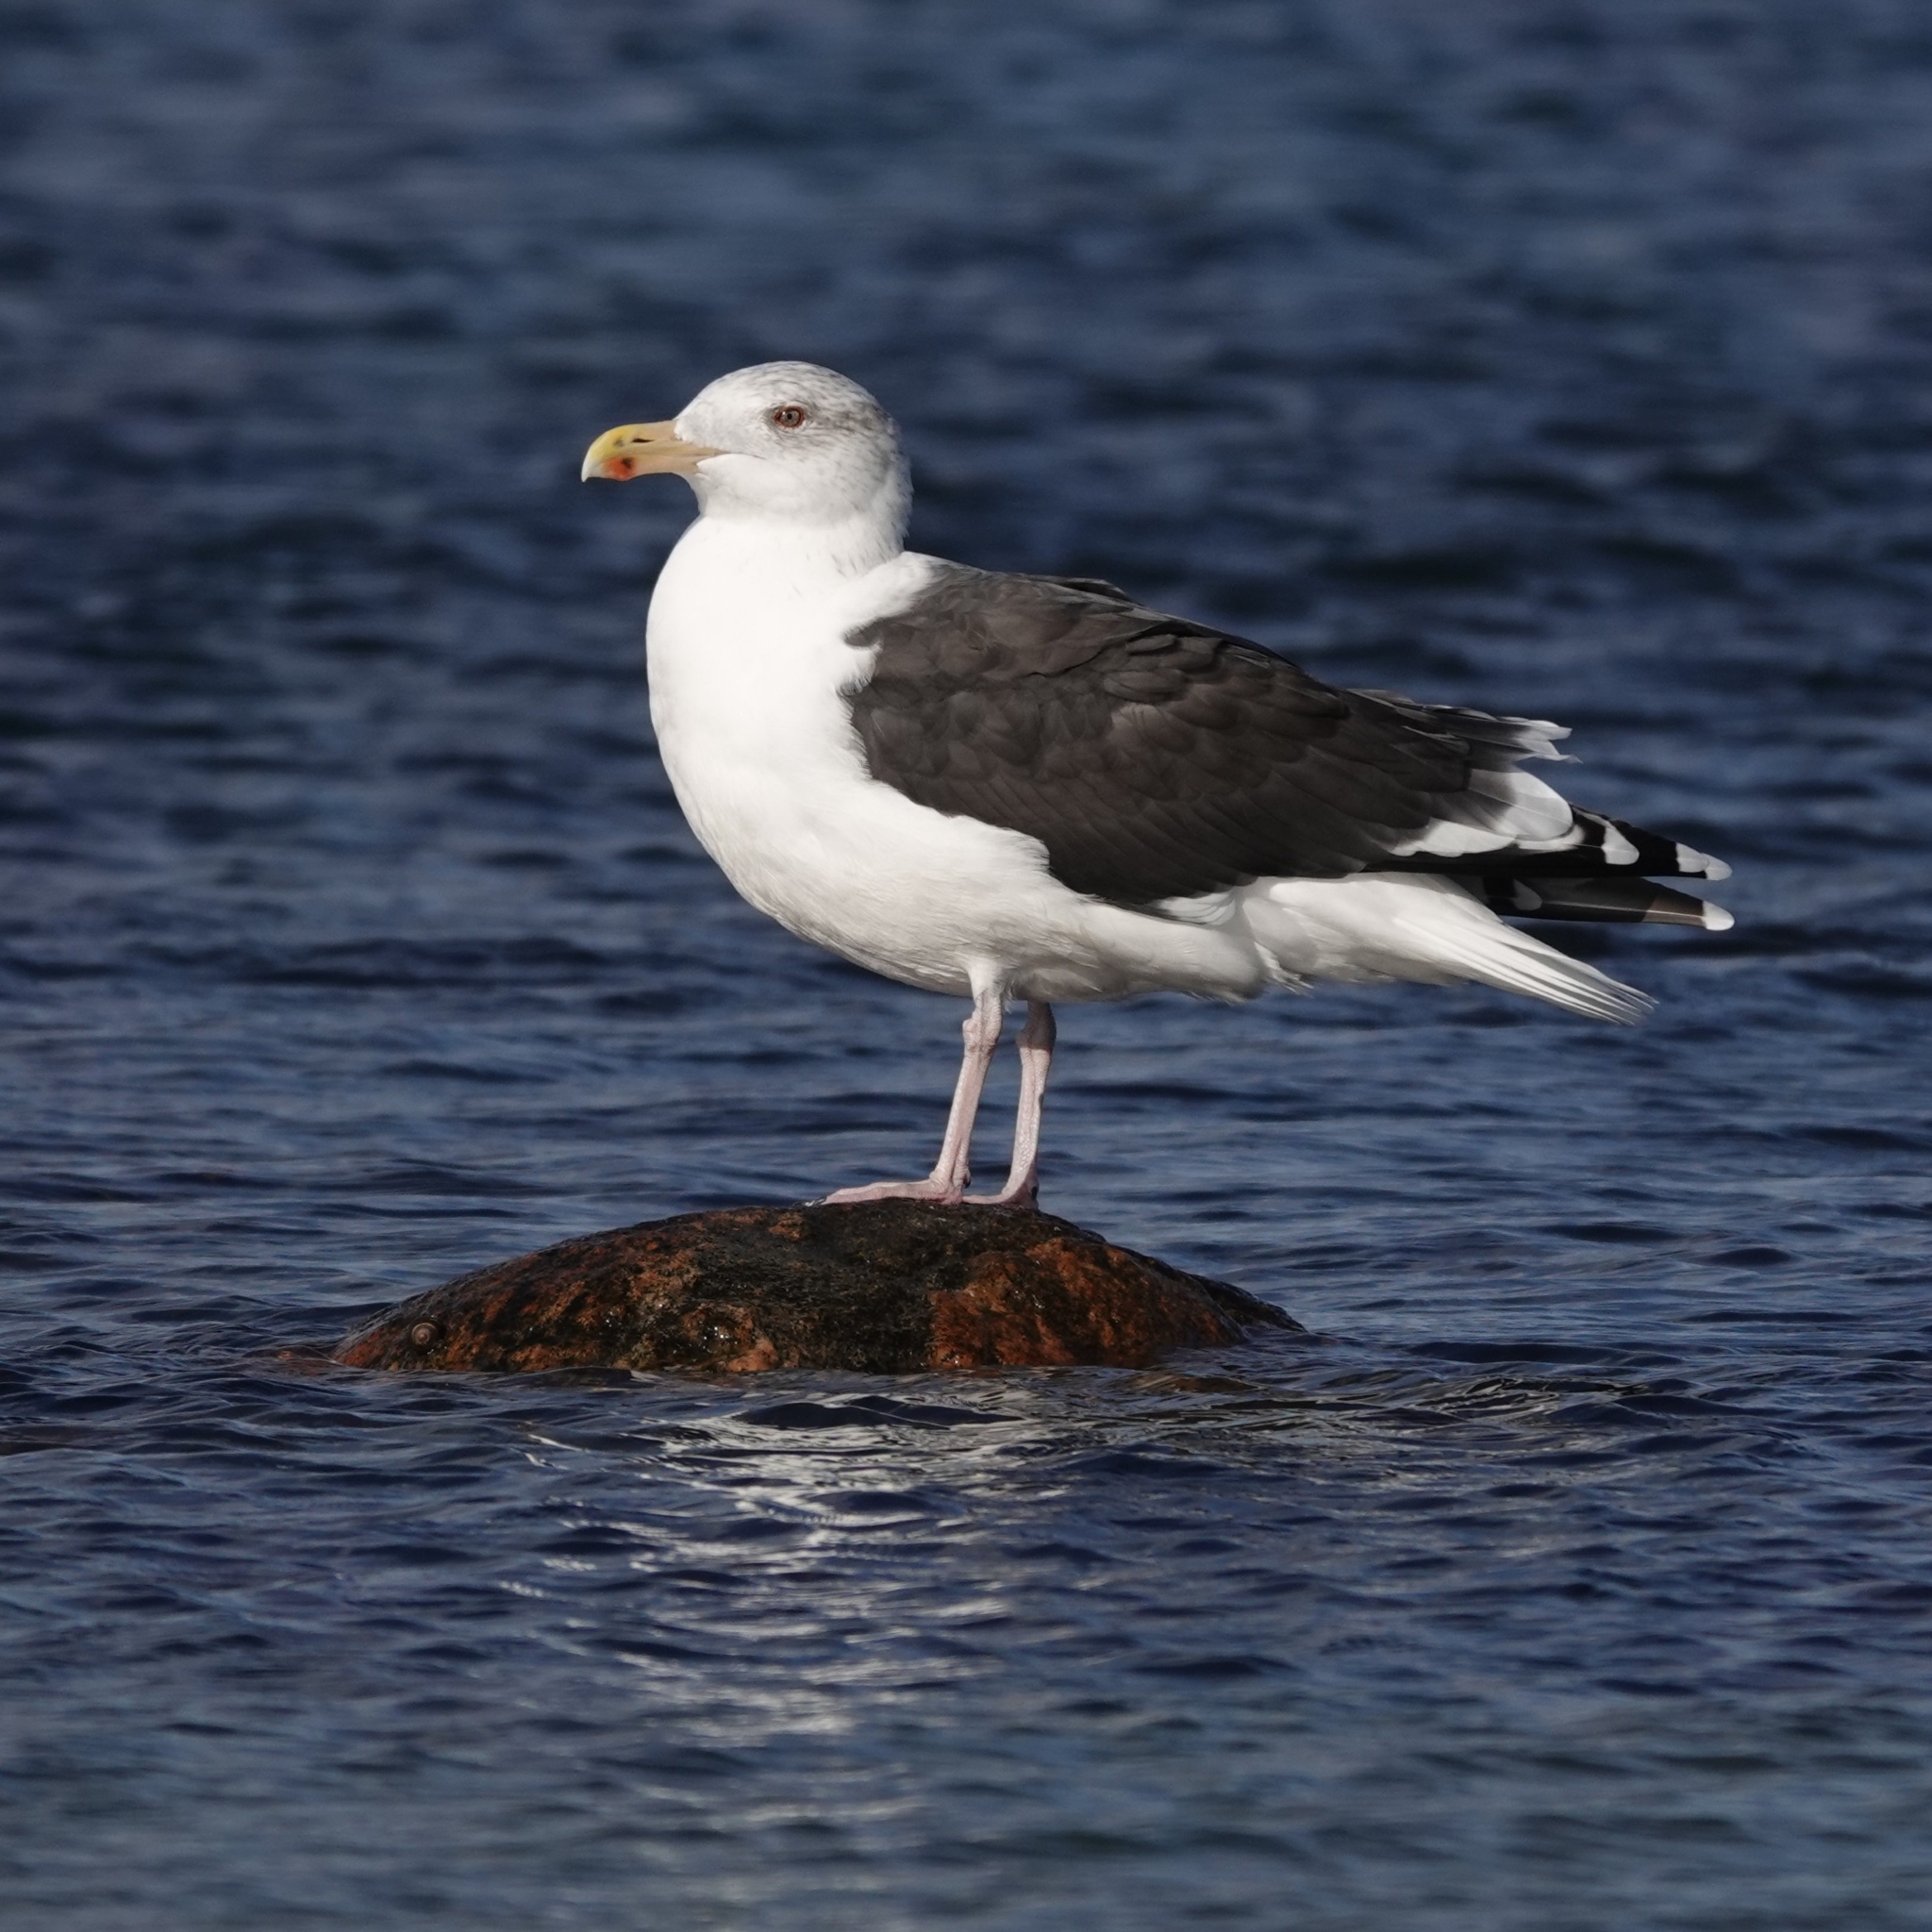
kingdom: Animalia
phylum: Chordata
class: Aves
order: Charadriiformes
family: Laridae
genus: Larus
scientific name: Larus marinus
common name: Great black-backed gull
